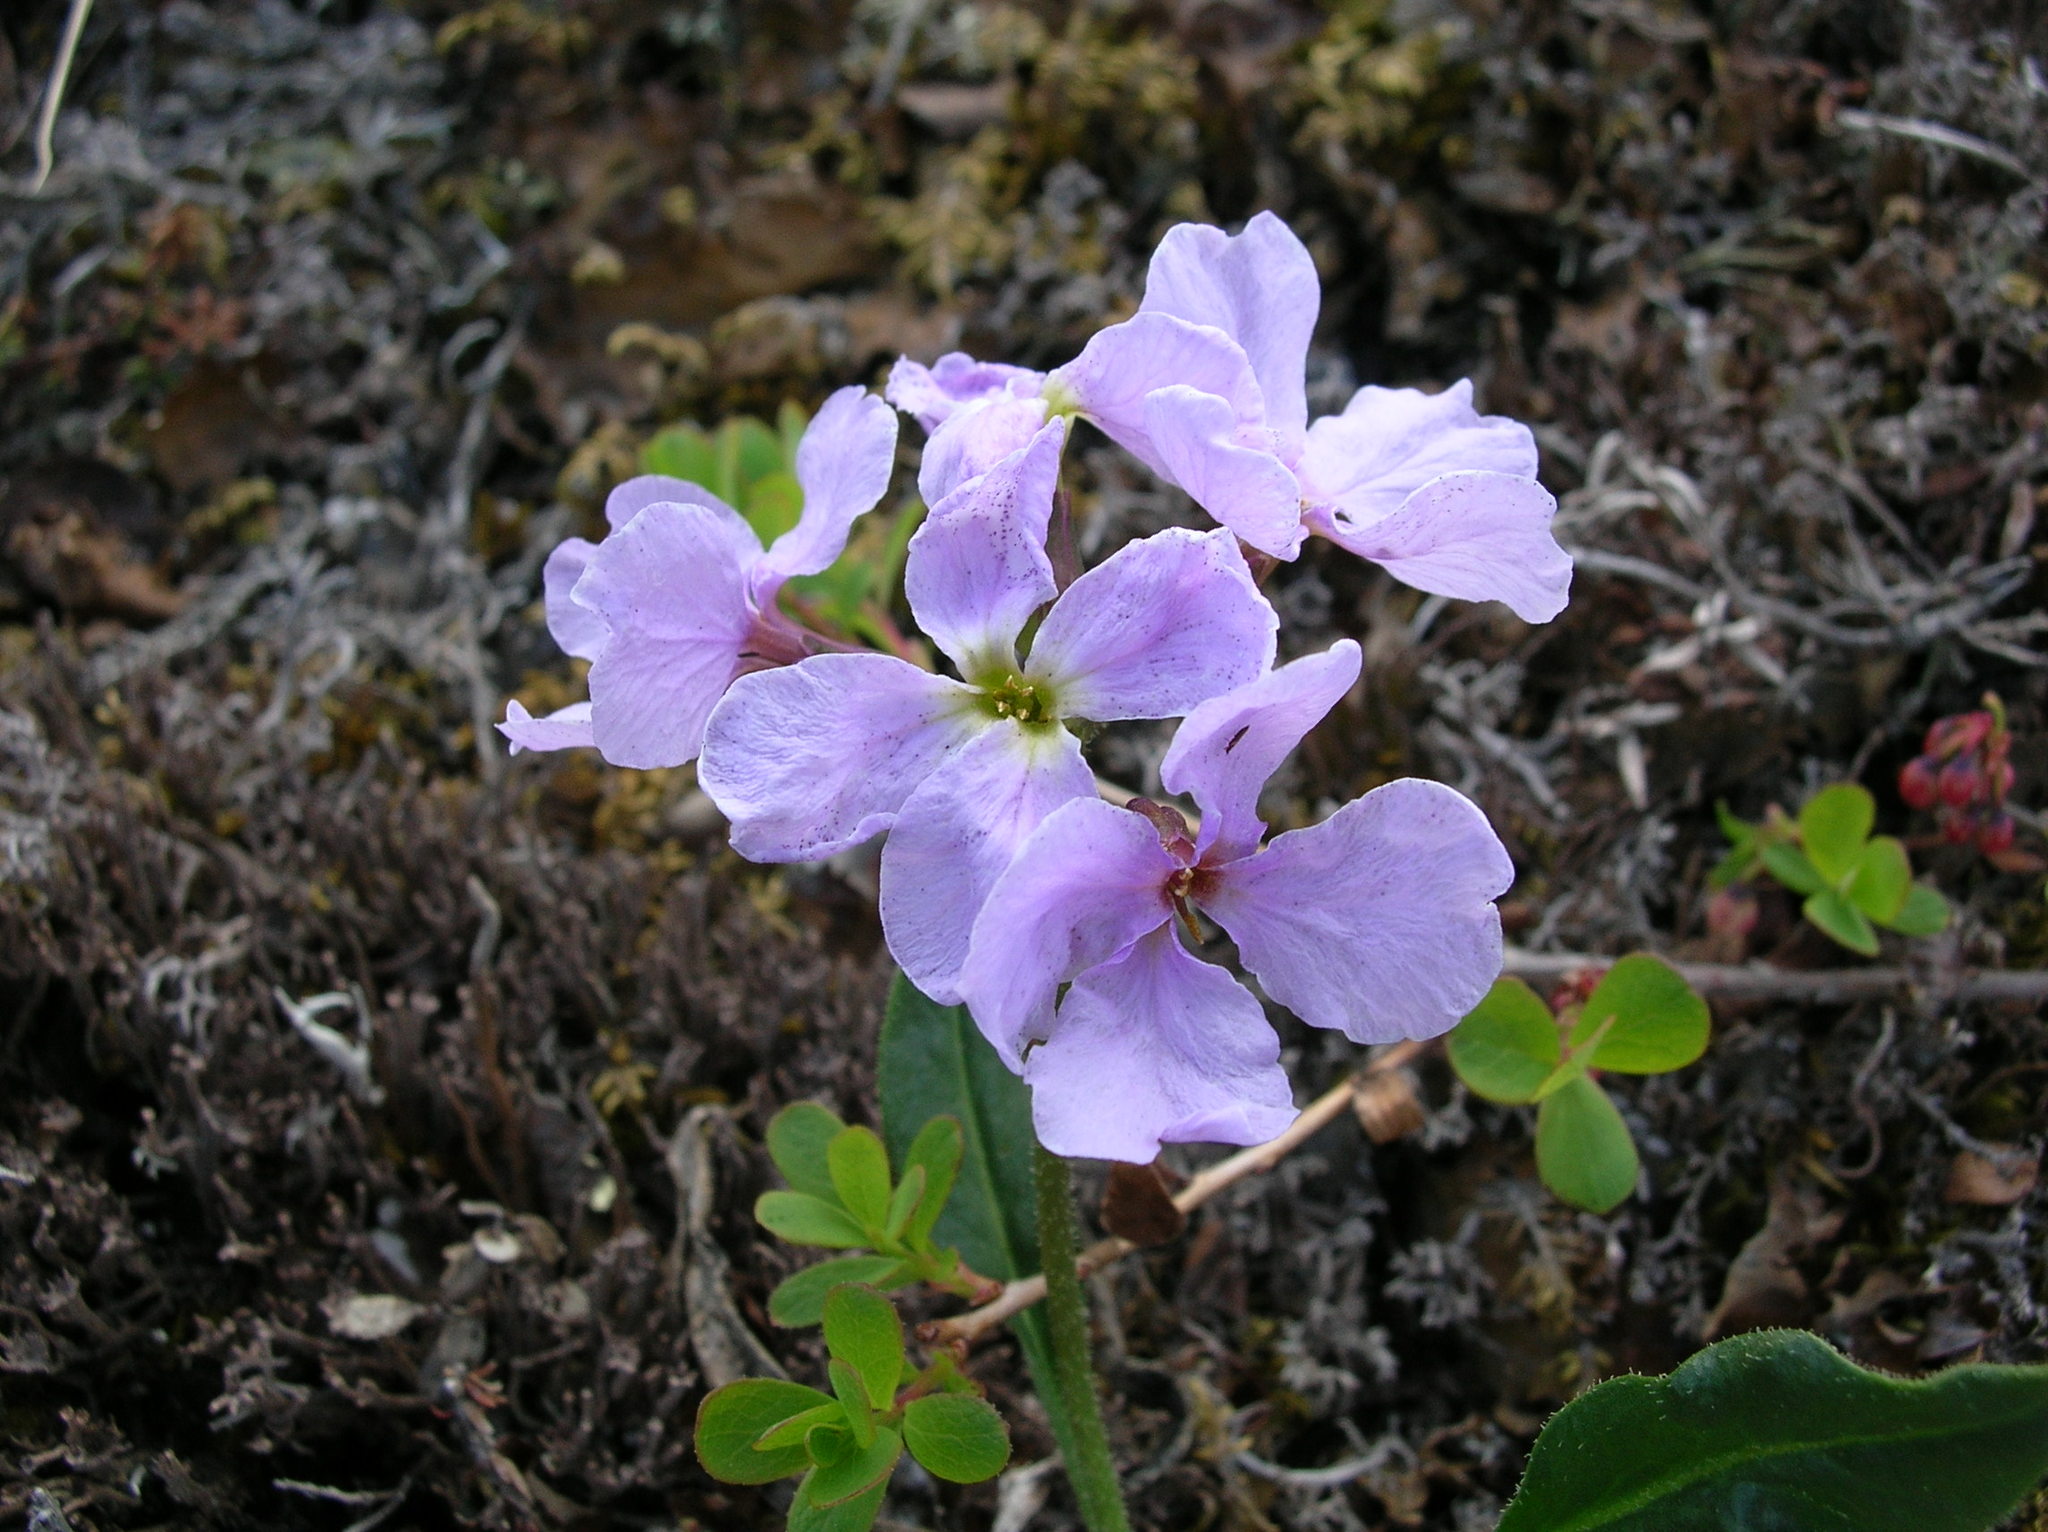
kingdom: Plantae
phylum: Tracheophyta
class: Magnoliopsida
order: Brassicales
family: Brassicaceae
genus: Parrya
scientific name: Parrya nudicaulis
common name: Naked-stemmed false wallflower
